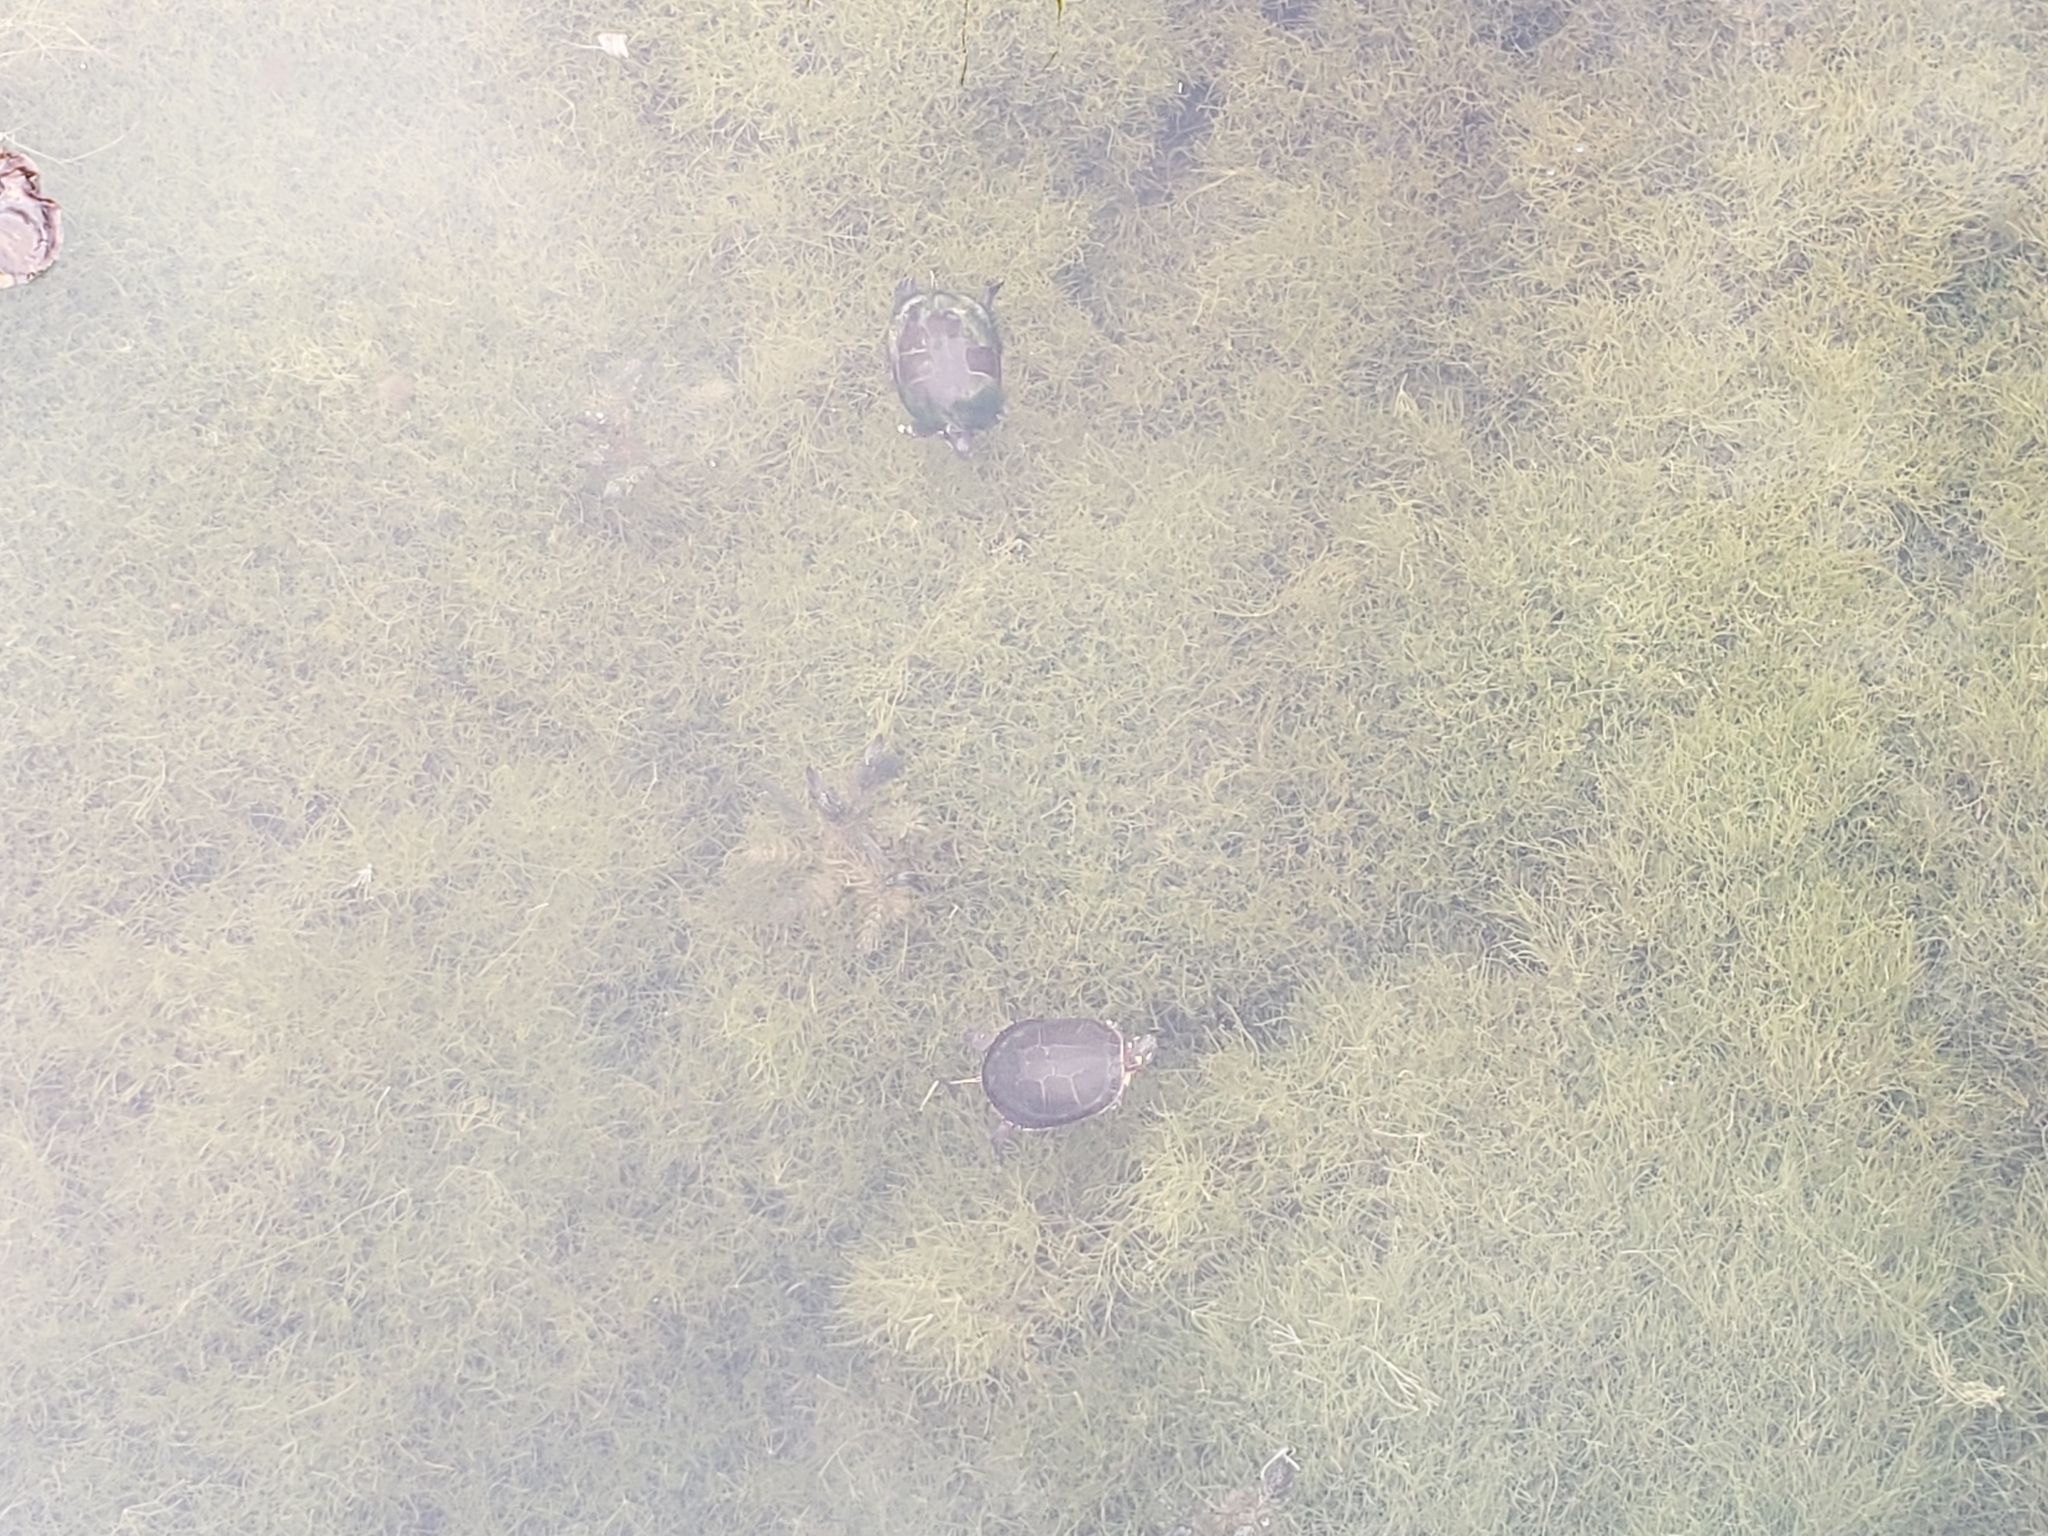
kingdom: Animalia
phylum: Chordata
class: Testudines
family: Emydidae
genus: Chrysemys
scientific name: Chrysemys picta
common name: Painted turtle
